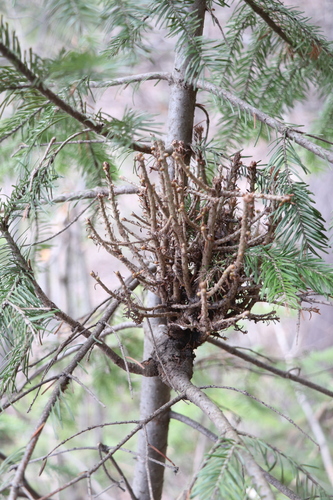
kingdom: Fungi
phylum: Basidiomycota
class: Pucciniomycetes
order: Pucciniales
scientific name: Pucciniales
